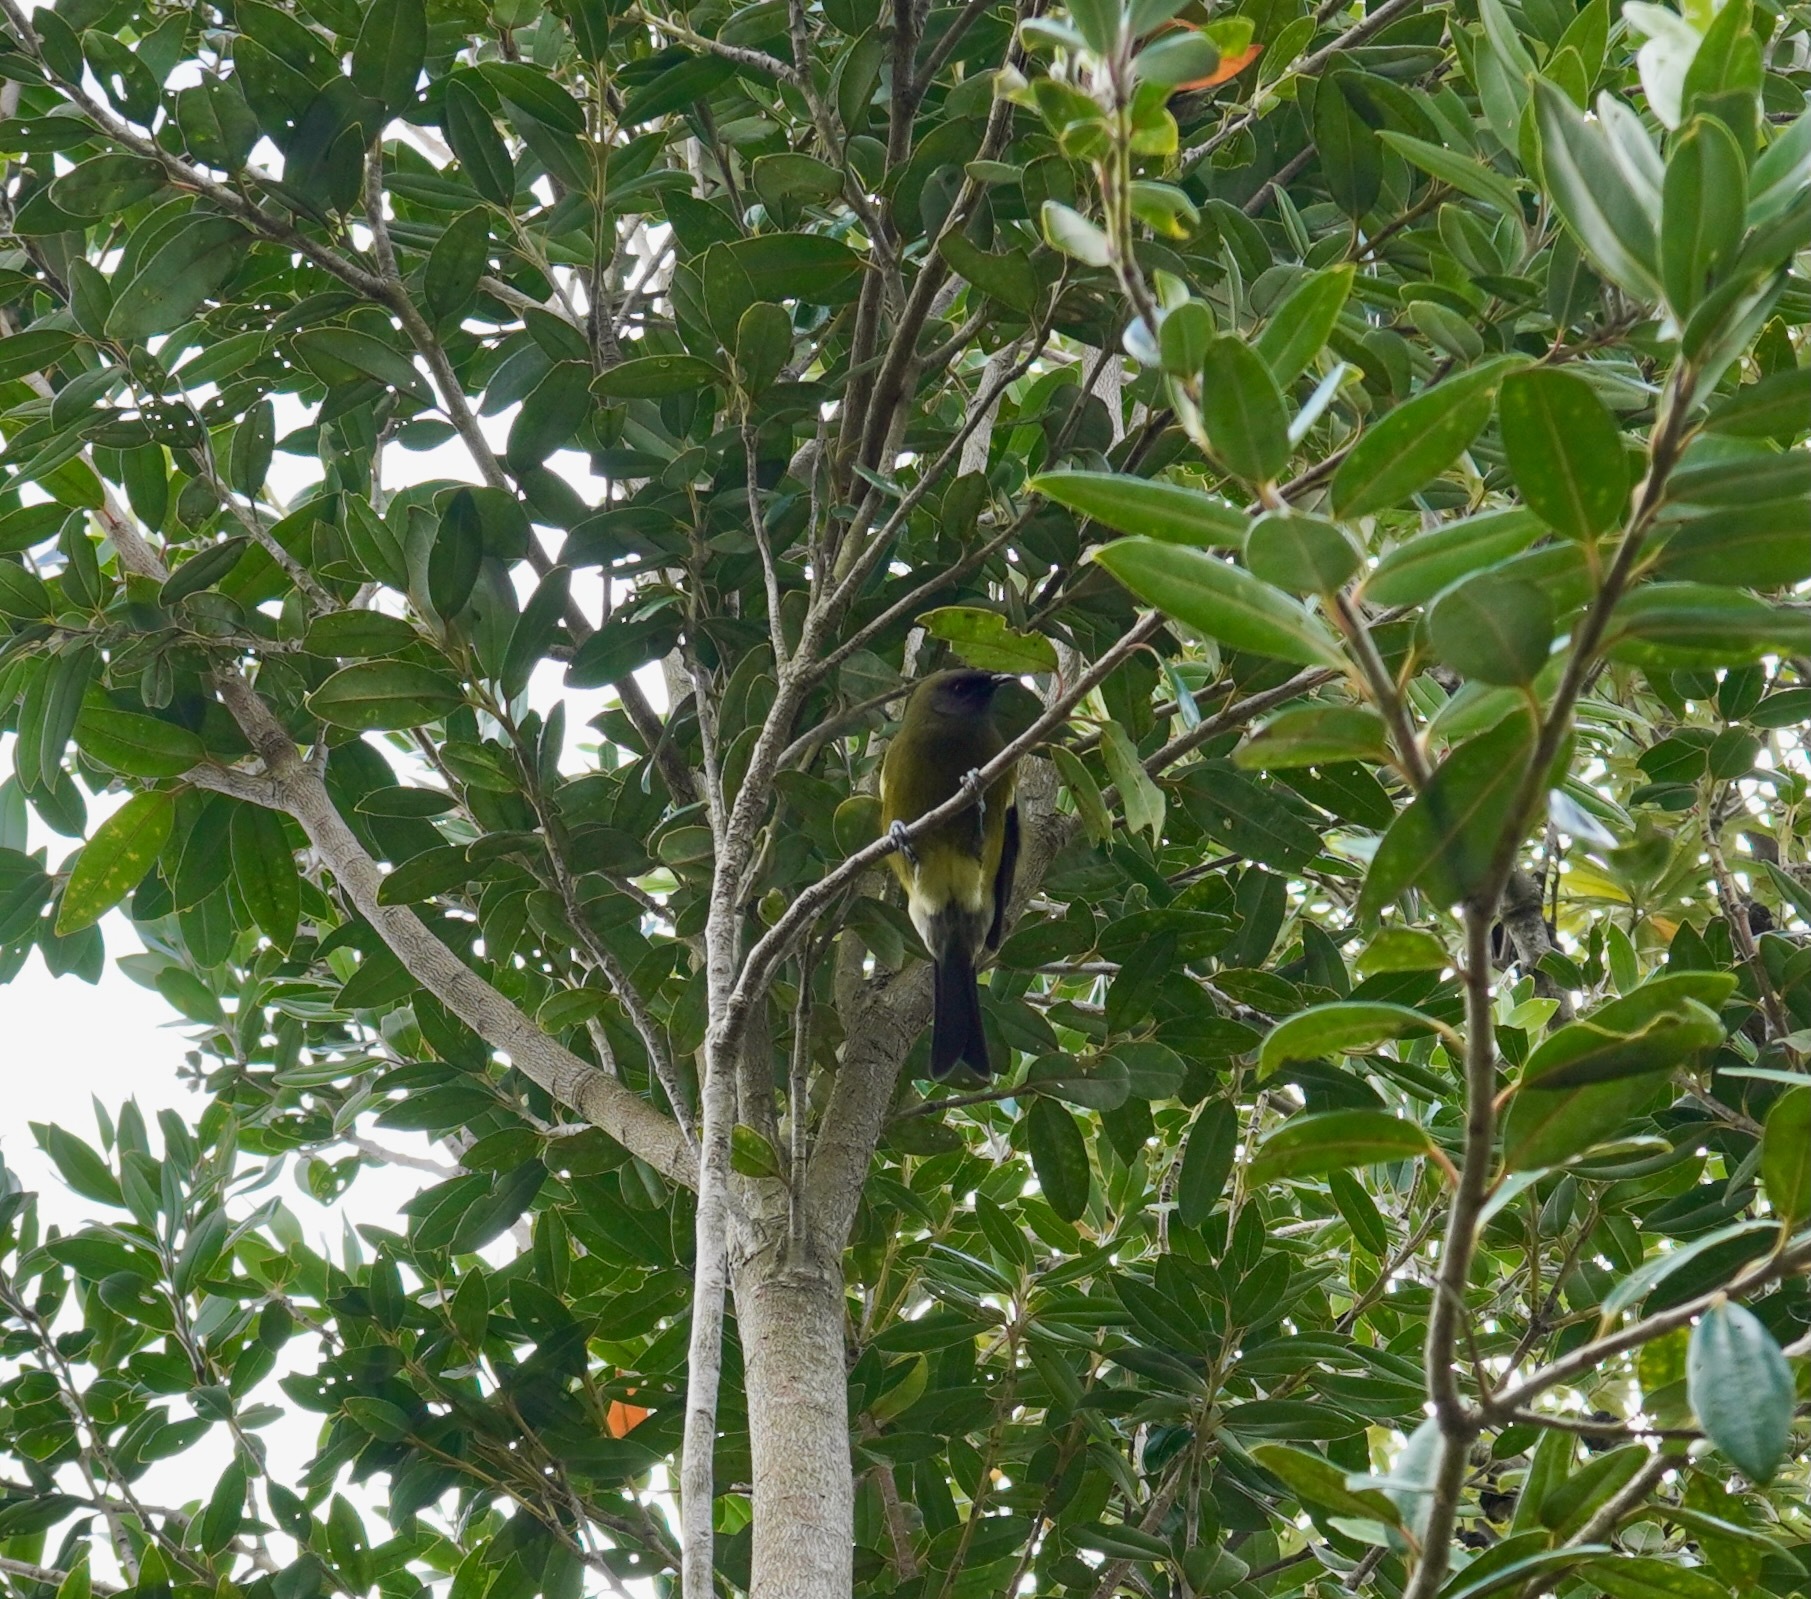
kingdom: Animalia
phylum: Chordata
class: Aves
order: Passeriformes
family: Meliphagidae
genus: Anthornis
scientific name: Anthornis melanura
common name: New zealand bellbird
